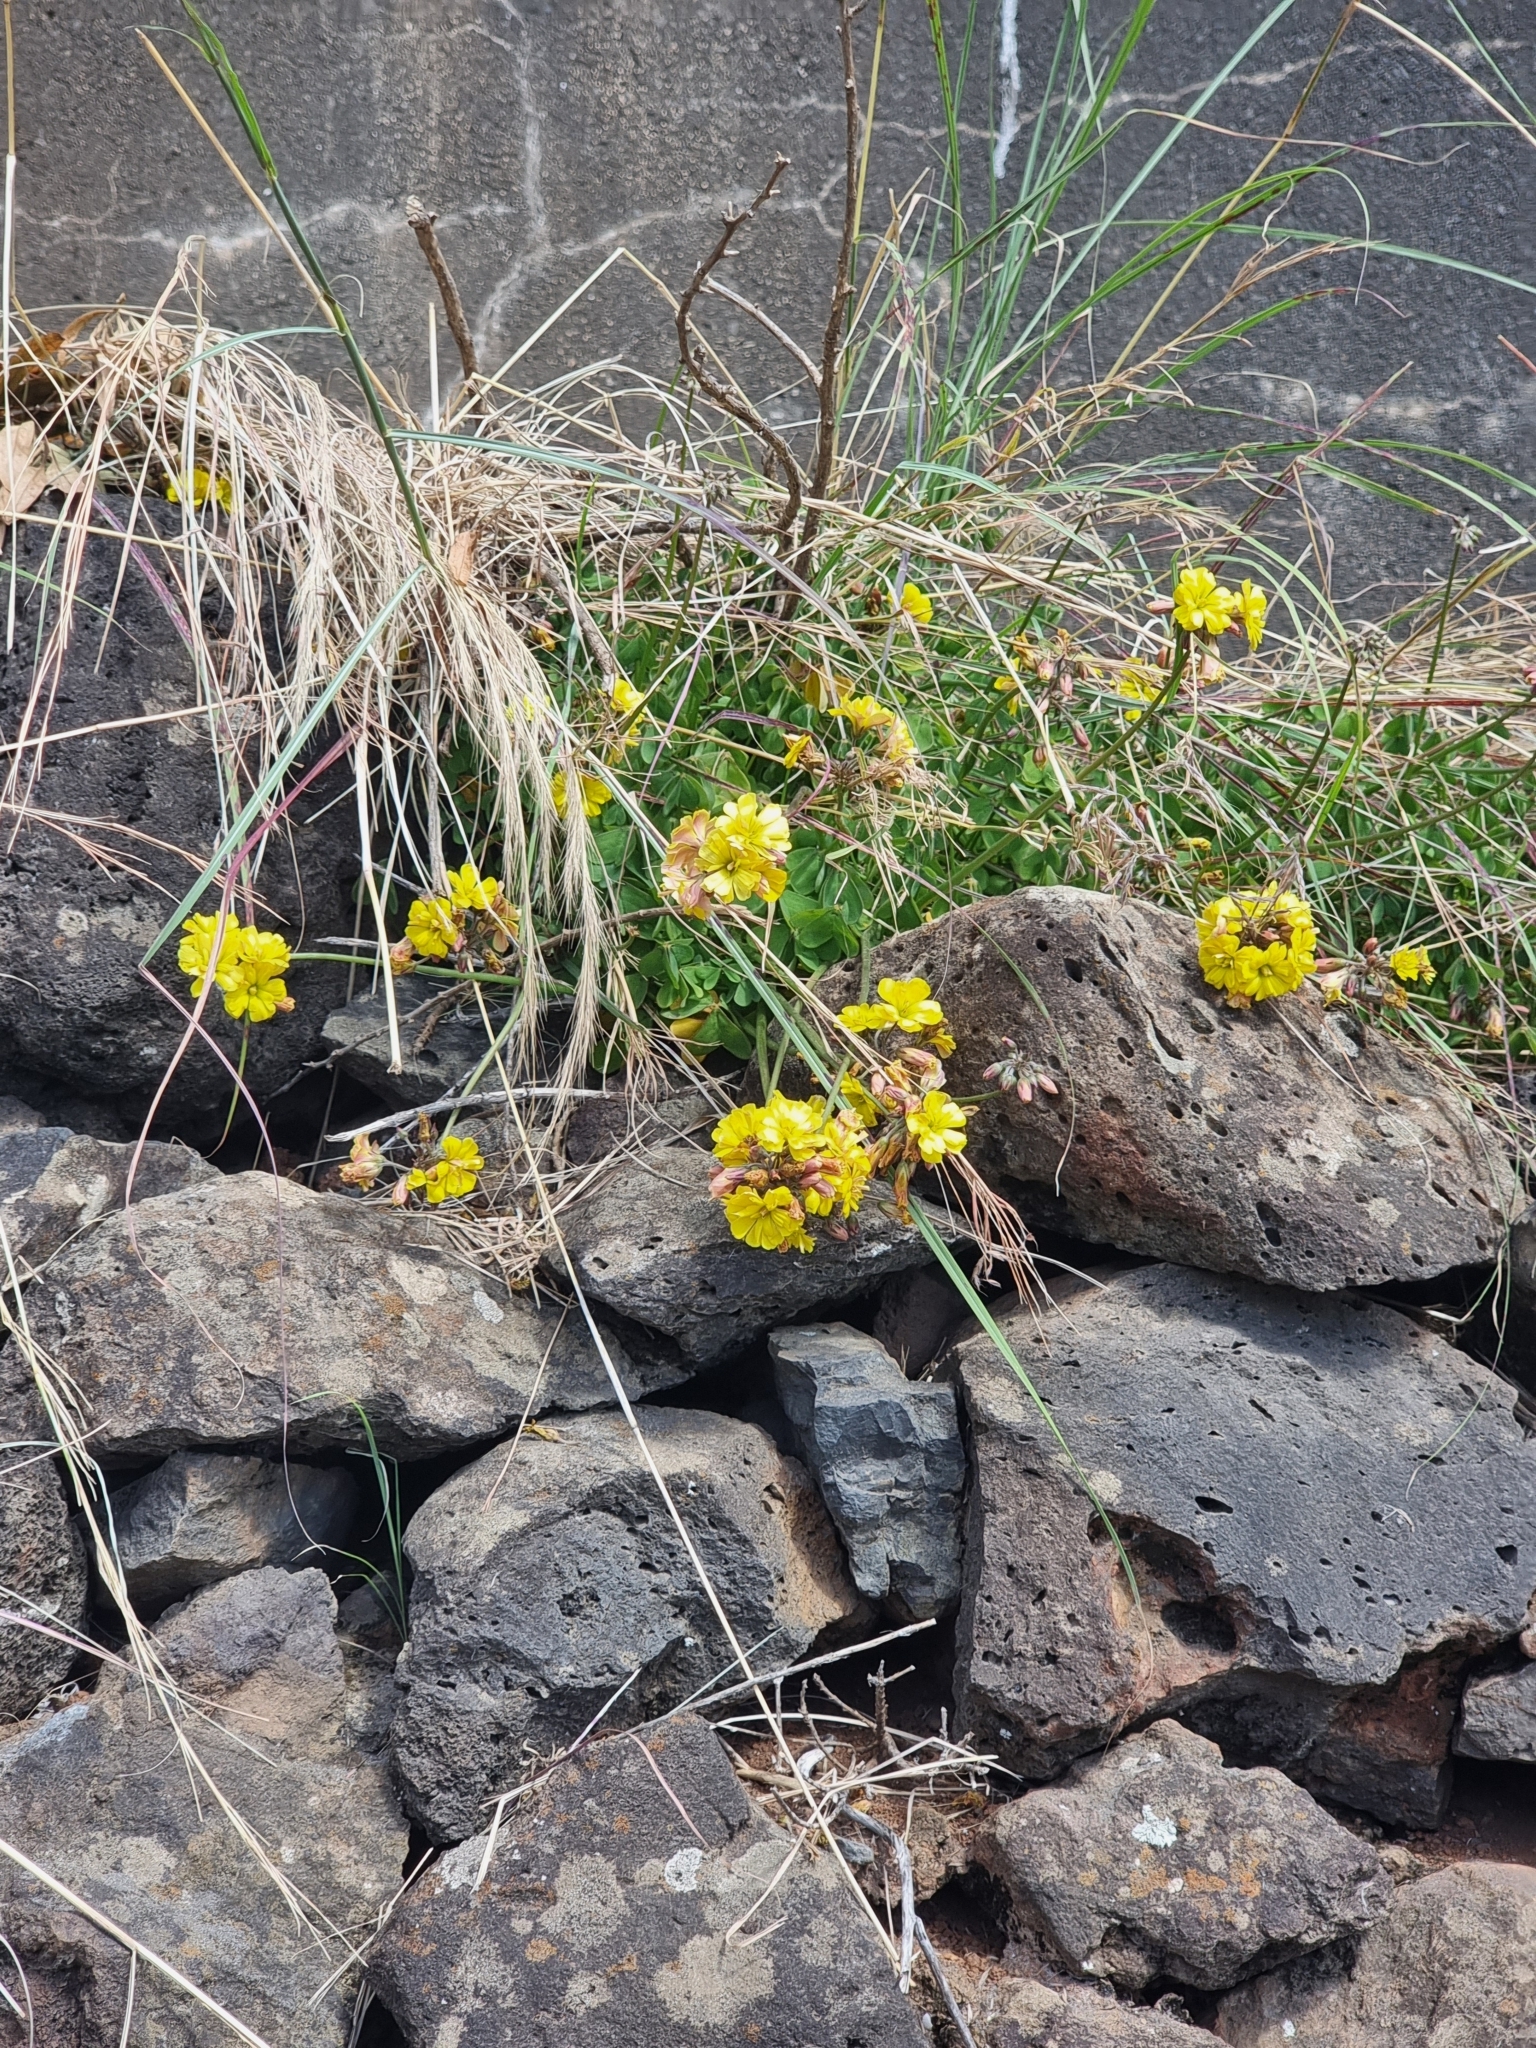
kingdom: Plantae
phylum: Tracheophyta
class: Magnoliopsida
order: Oxalidales
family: Oxalidaceae
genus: Oxalis
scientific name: Oxalis pes-caprae
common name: Bermuda-buttercup
